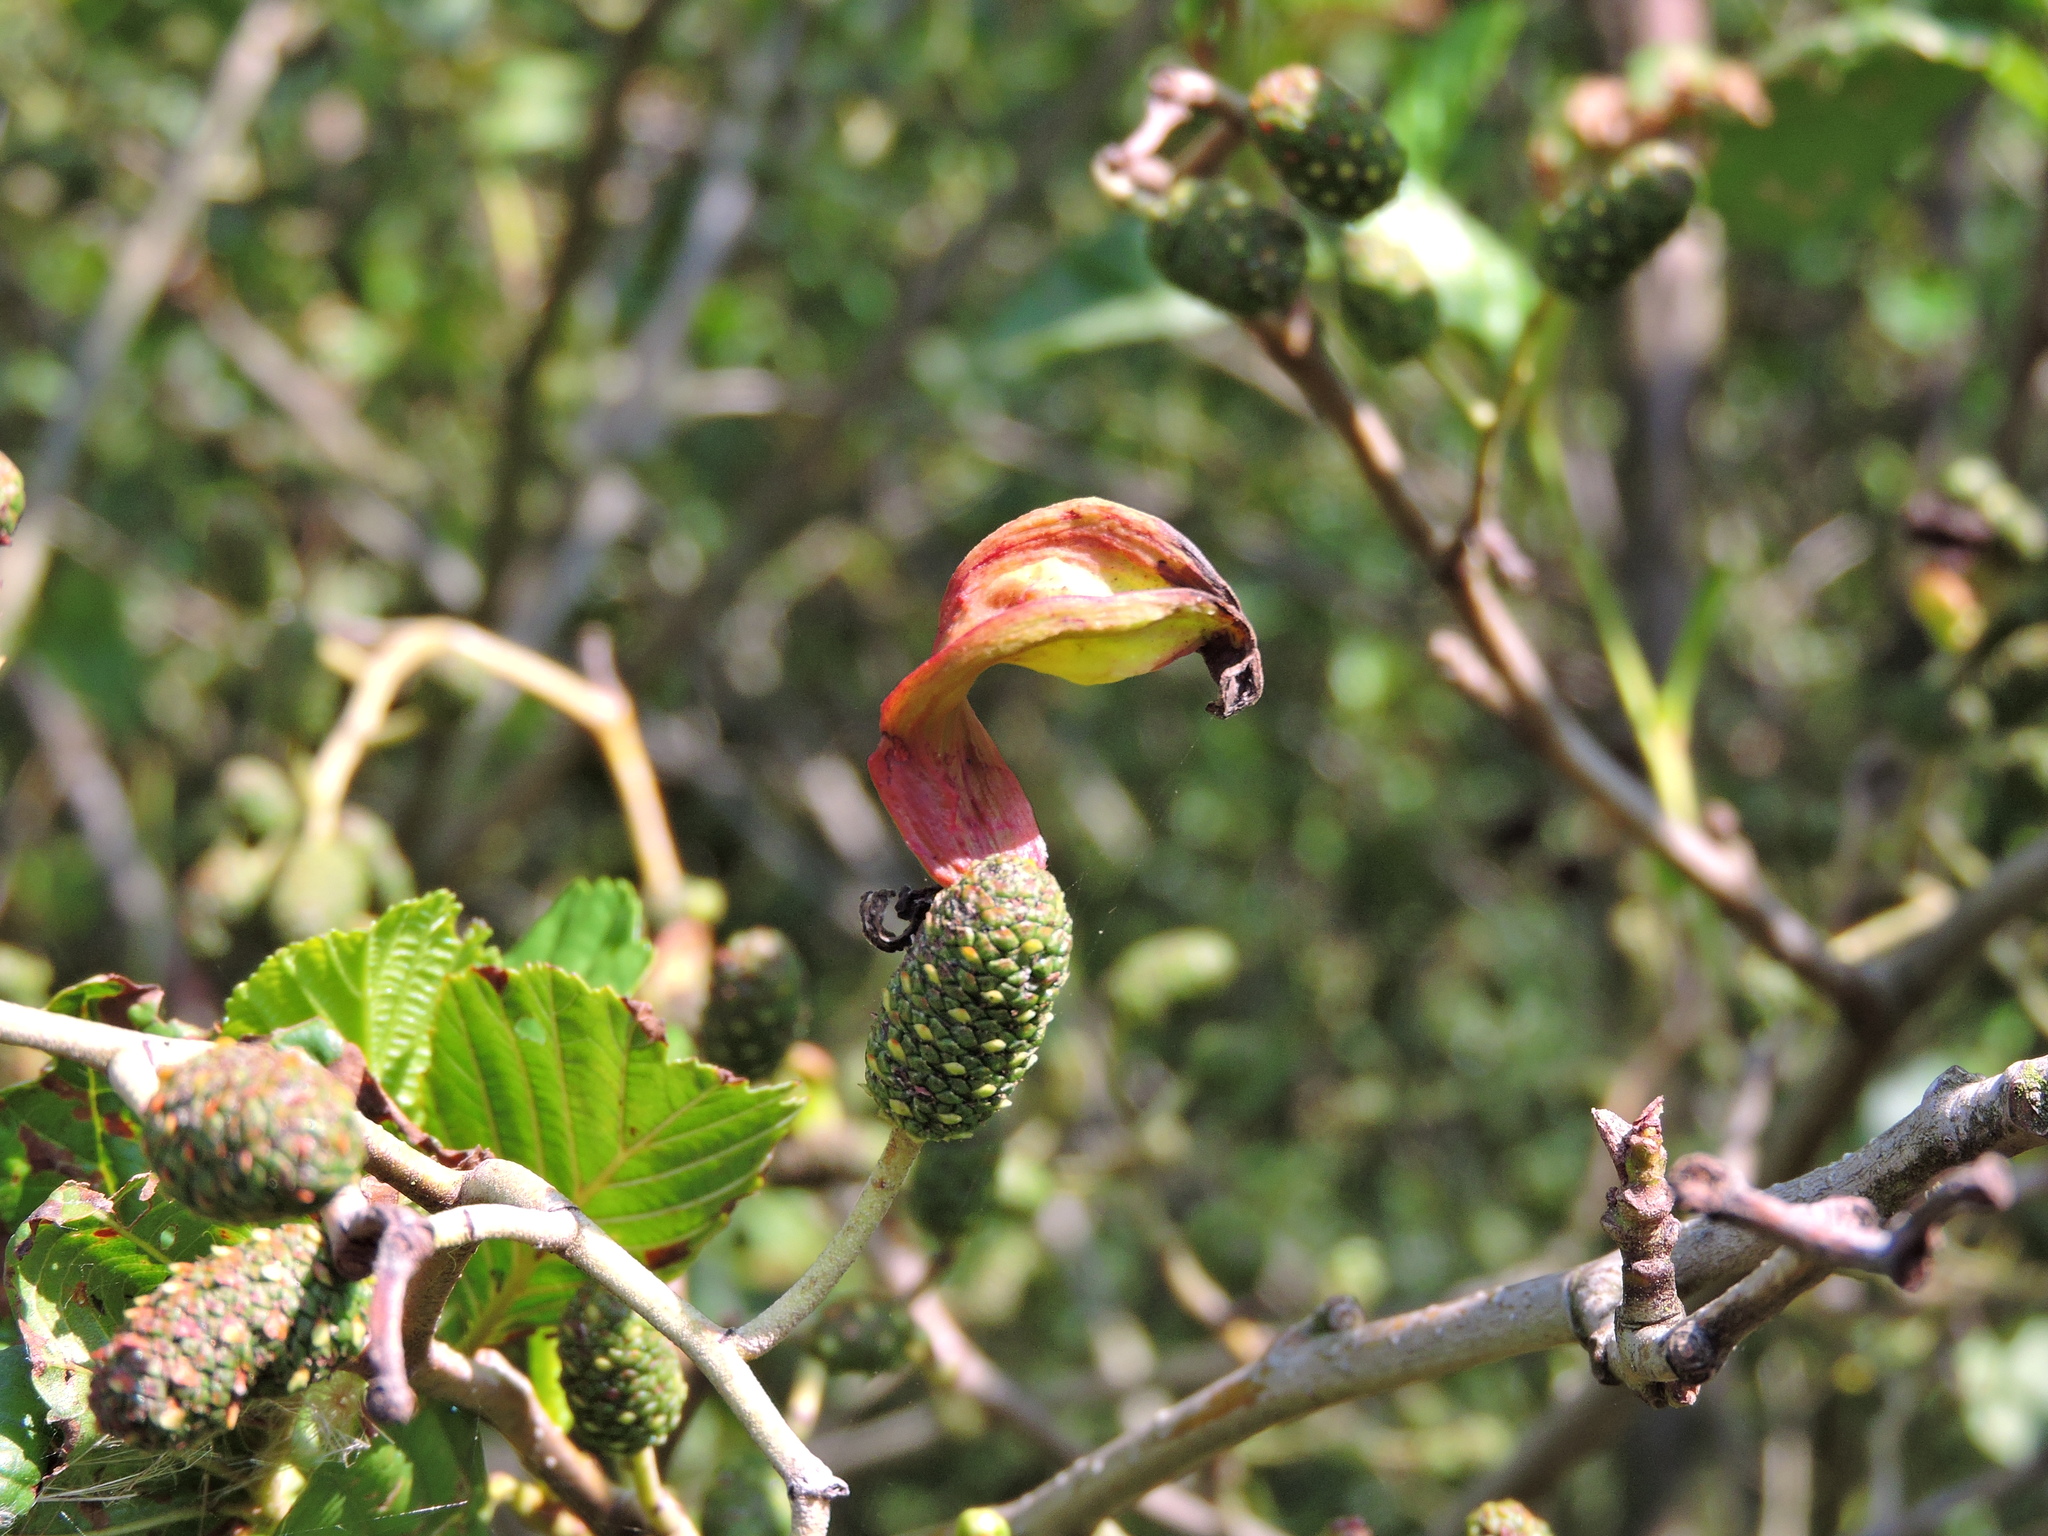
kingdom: Fungi
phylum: Ascomycota
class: Taphrinomycetes
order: Taphrinales
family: Taphrinaceae
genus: Taphrina
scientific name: Taphrina alni
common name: Alder tongue
